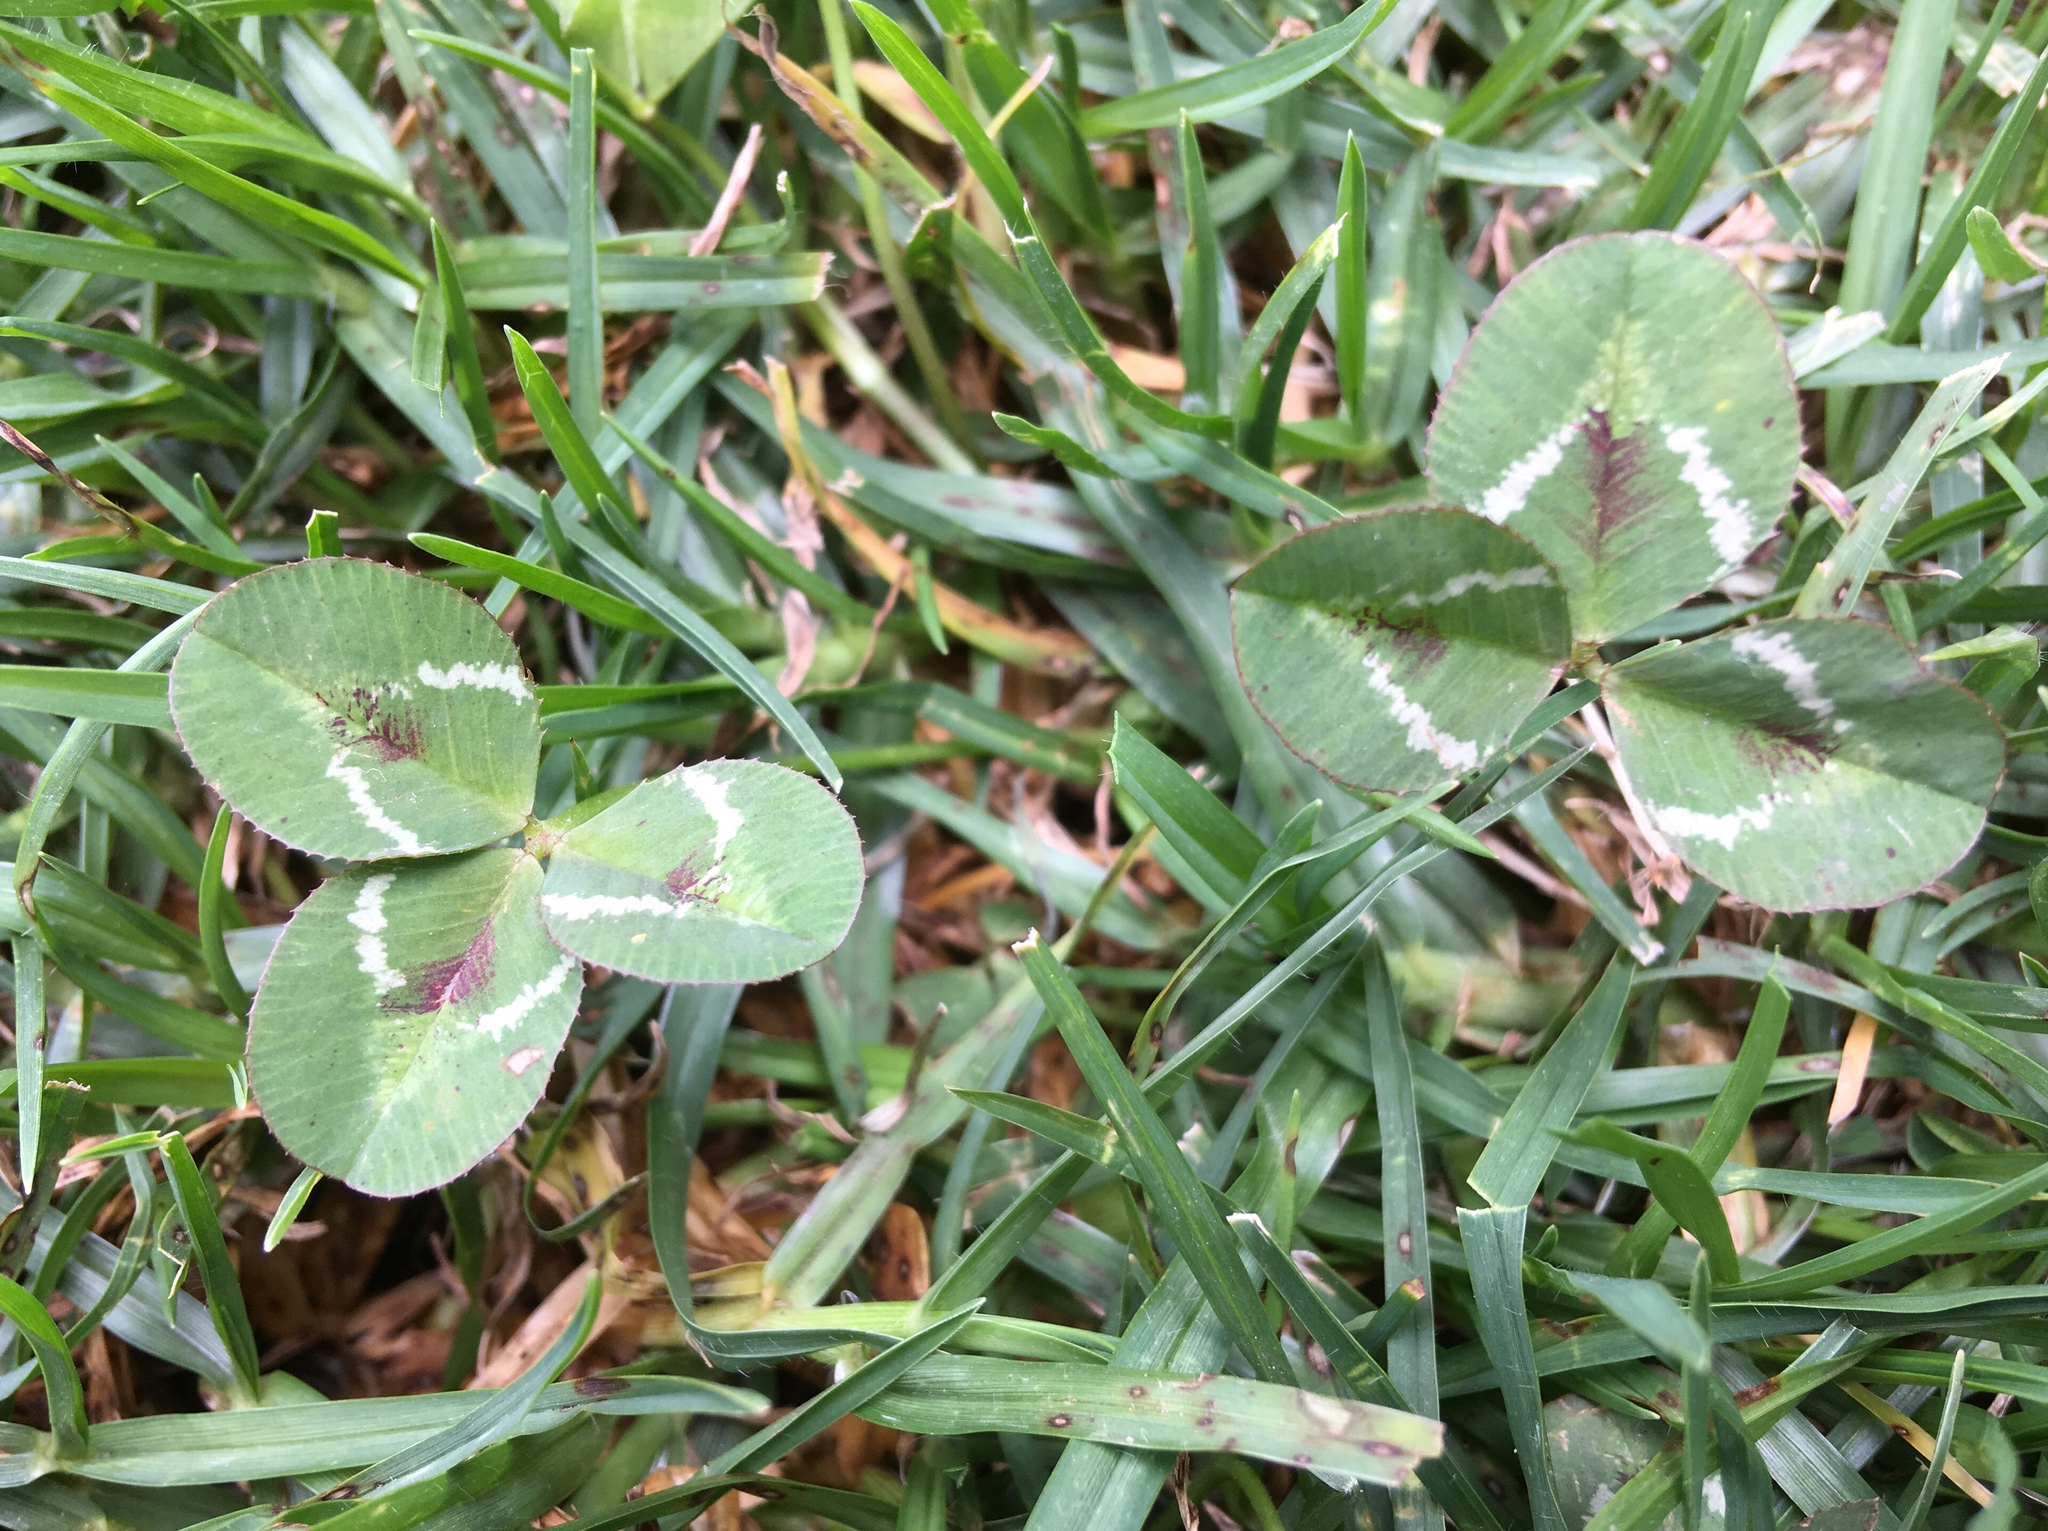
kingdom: Plantae
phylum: Tracheophyta
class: Magnoliopsida
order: Fabales
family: Fabaceae
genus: Trifolium
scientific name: Trifolium repens
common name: White clover
